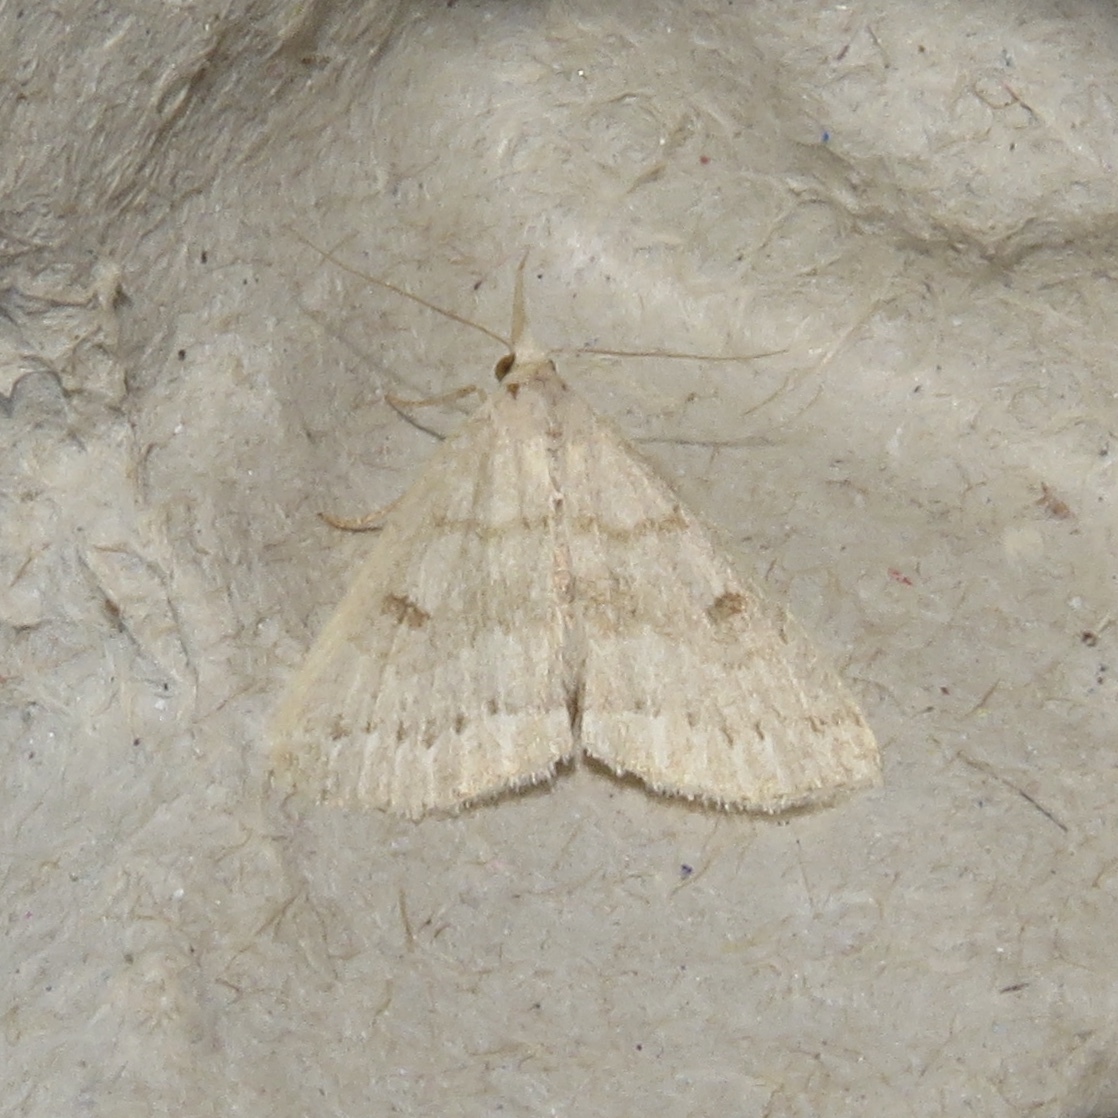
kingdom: Animalia
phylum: Arthropoda
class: Insecta
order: Lepidoptera
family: Erebidae
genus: Macrochilo
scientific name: Macrochilo morbidalis
